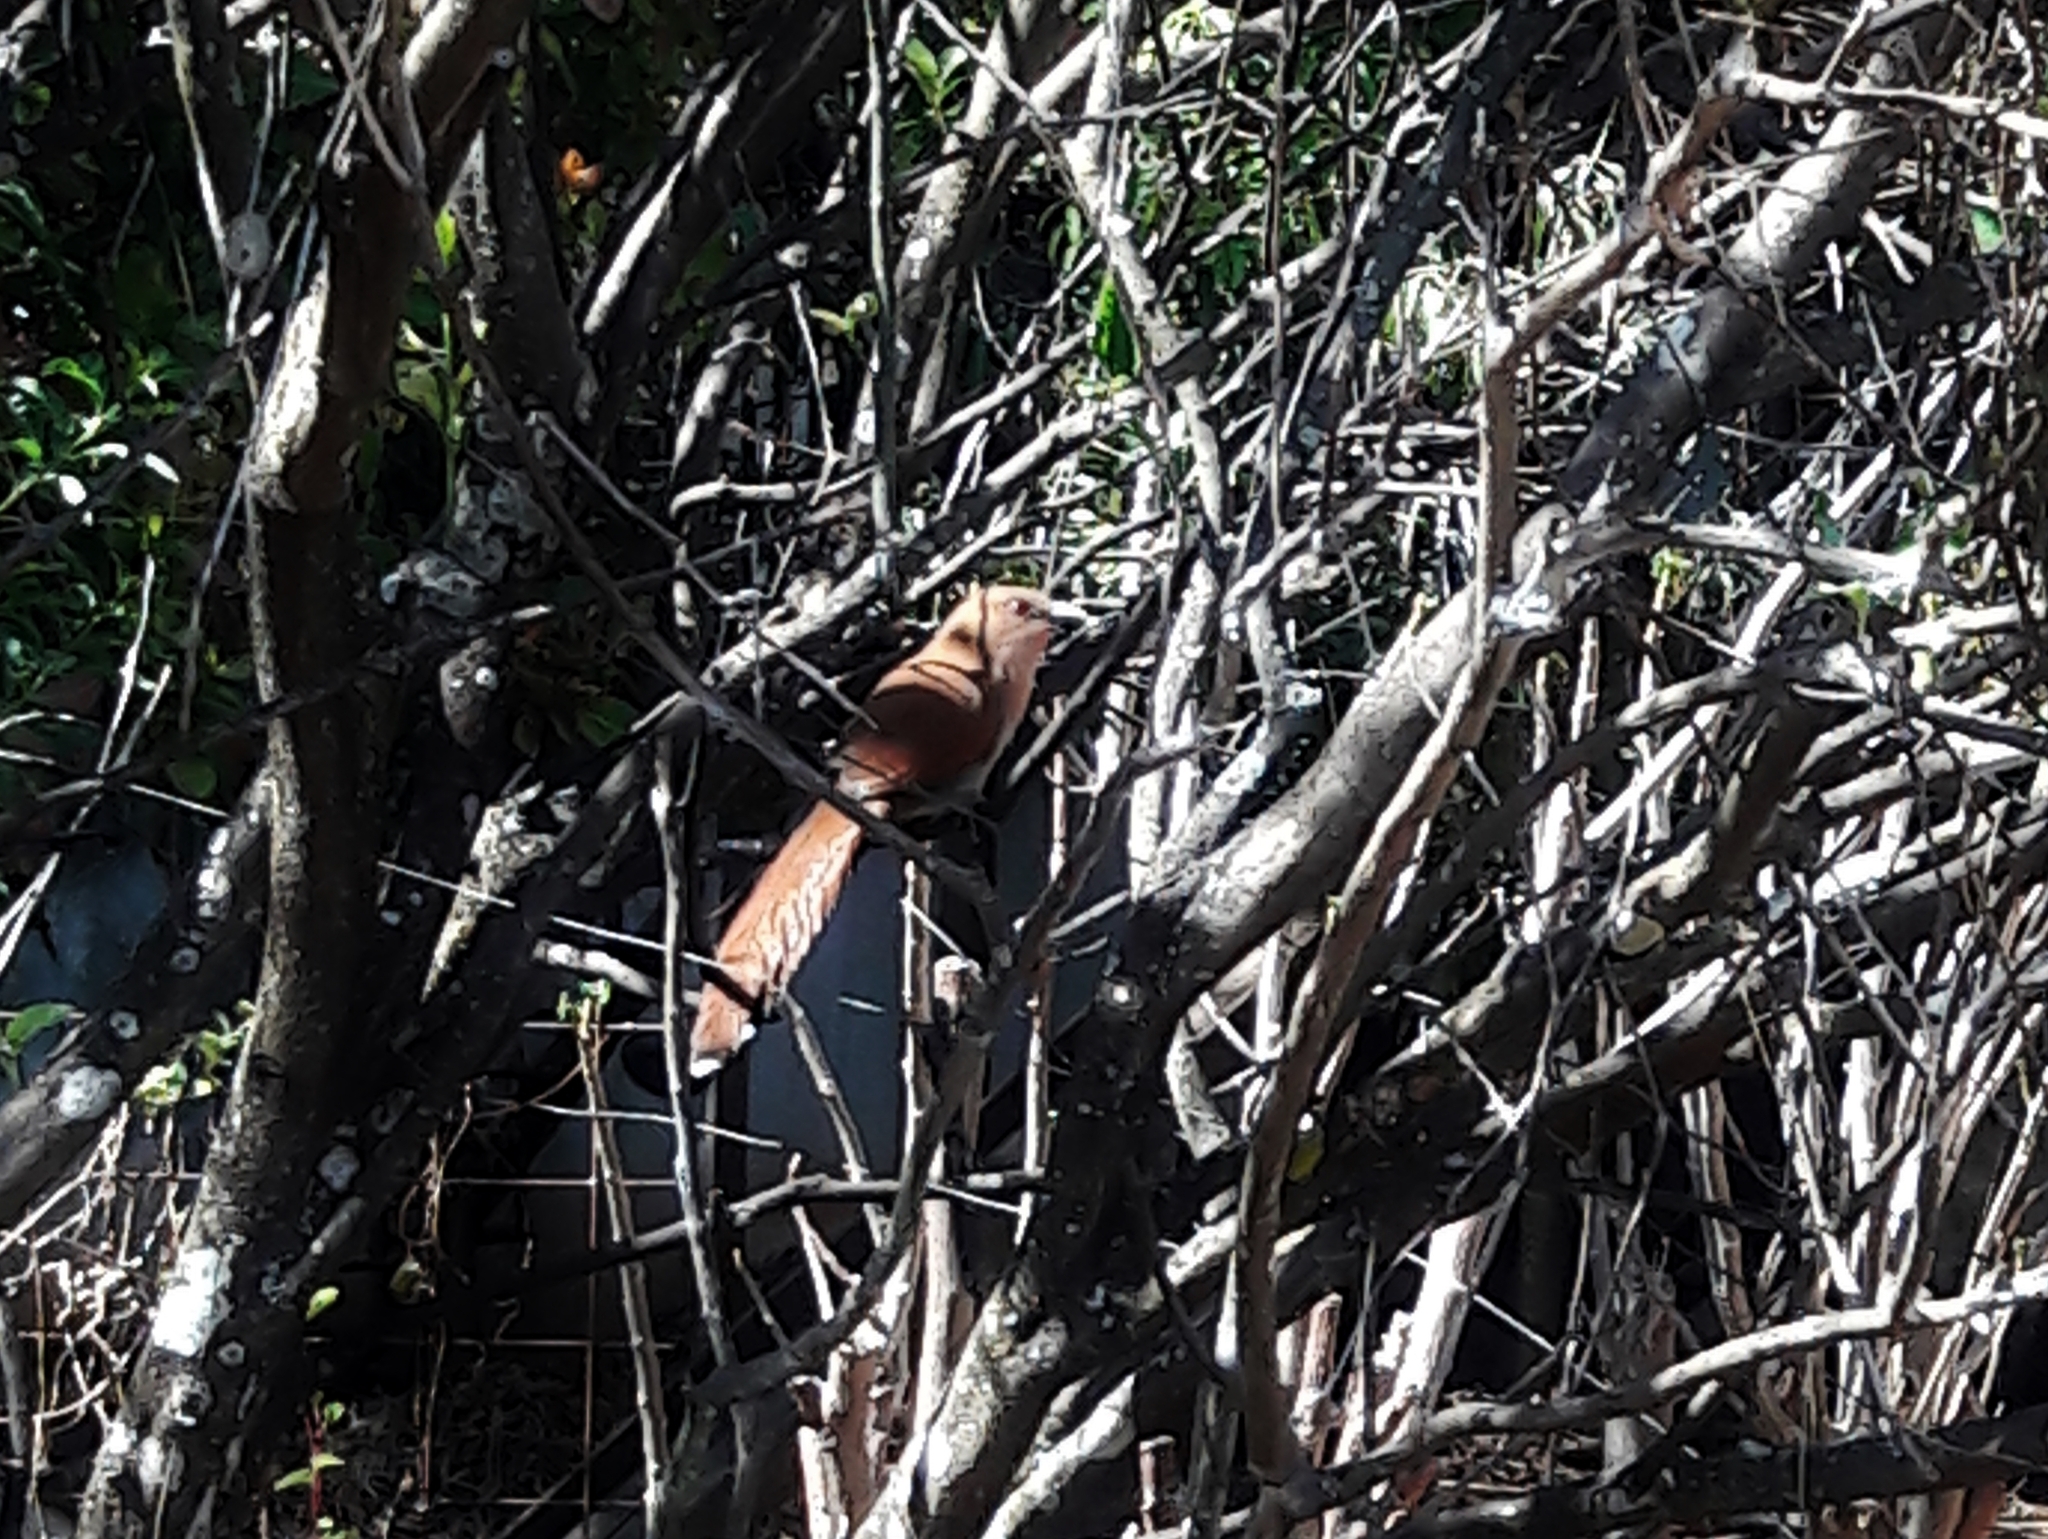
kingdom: Animalia
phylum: Chordata
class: Aves
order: Cuculiformes
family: Cuculidae
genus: Piaya
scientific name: Piaya cayana
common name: Squirrel cuckoo
